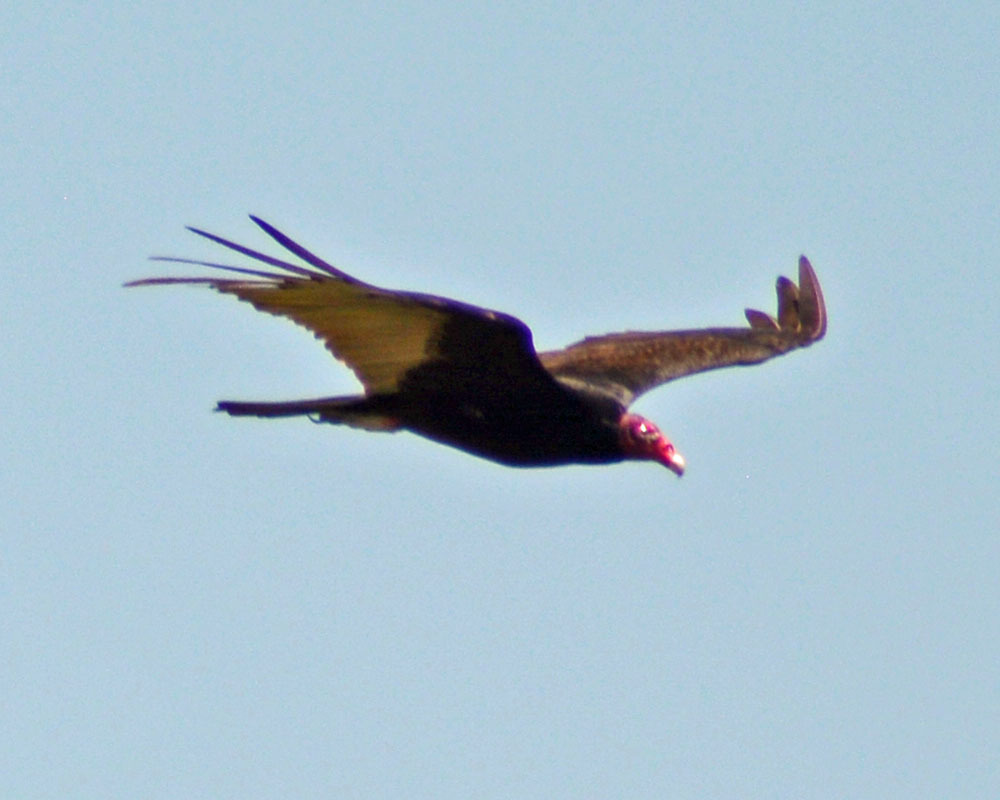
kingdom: Animalia
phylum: Chordata
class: Aves
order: Accipitriformes
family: Cathartidae
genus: Cathartes
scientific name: Cathartes aura
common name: Turkey vulture
